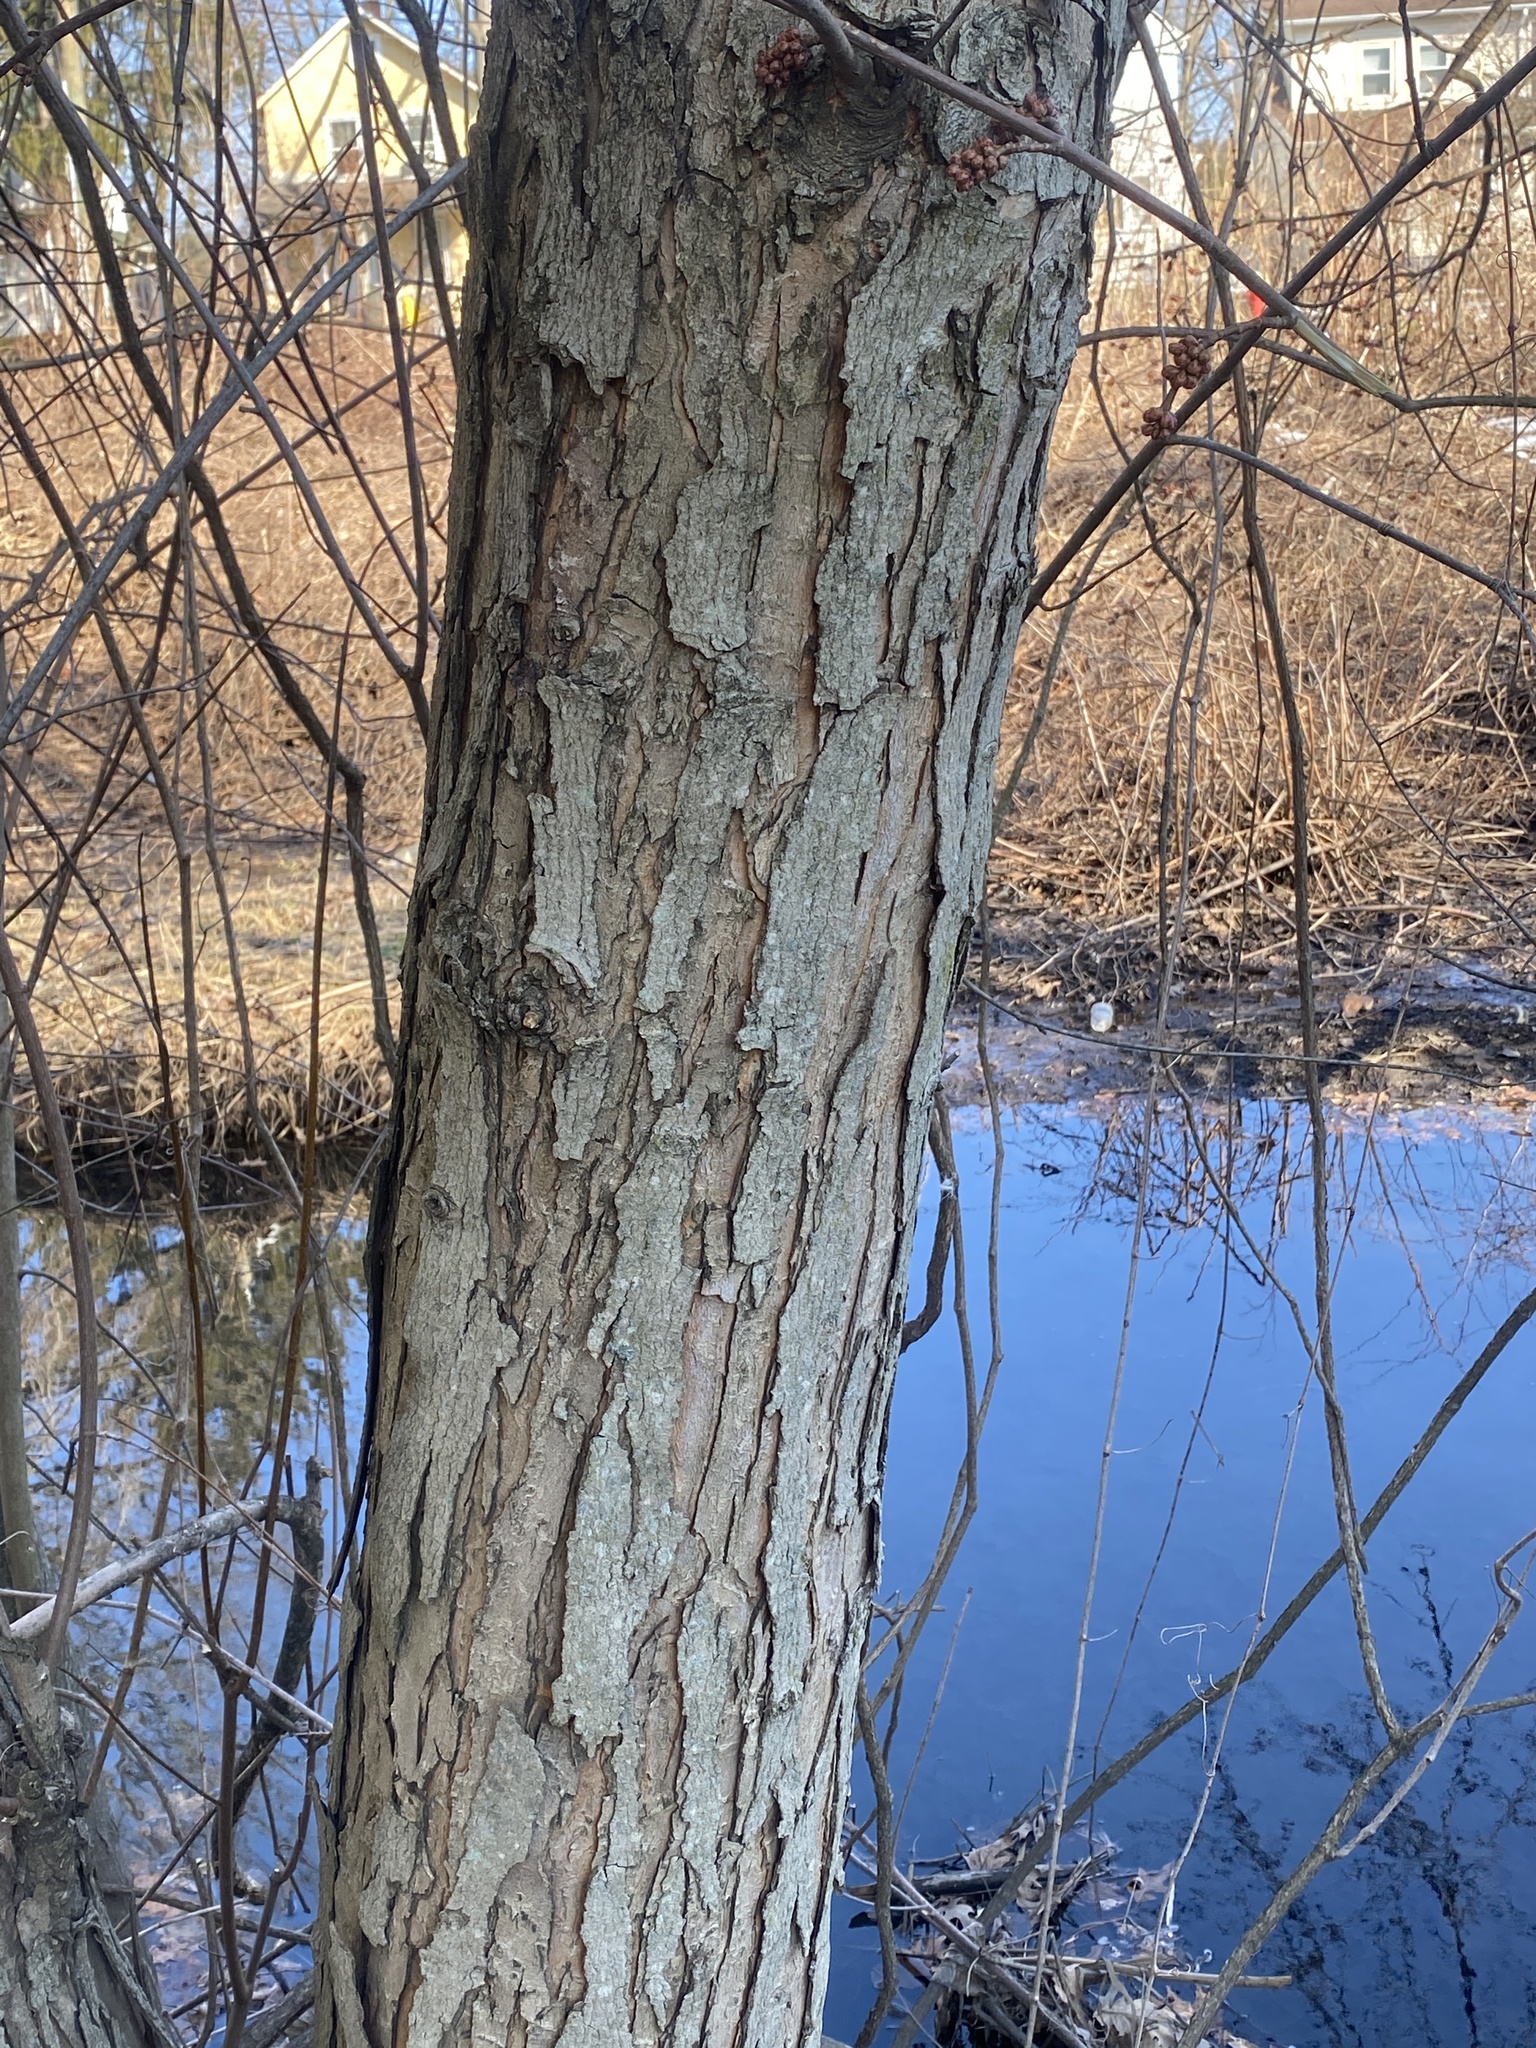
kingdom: Plantae
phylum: Tracheophyta
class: Magnoliopsida
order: Sapindales
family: Sapindaceae
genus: Acer
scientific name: Acer saccharinum
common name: Silver maple
